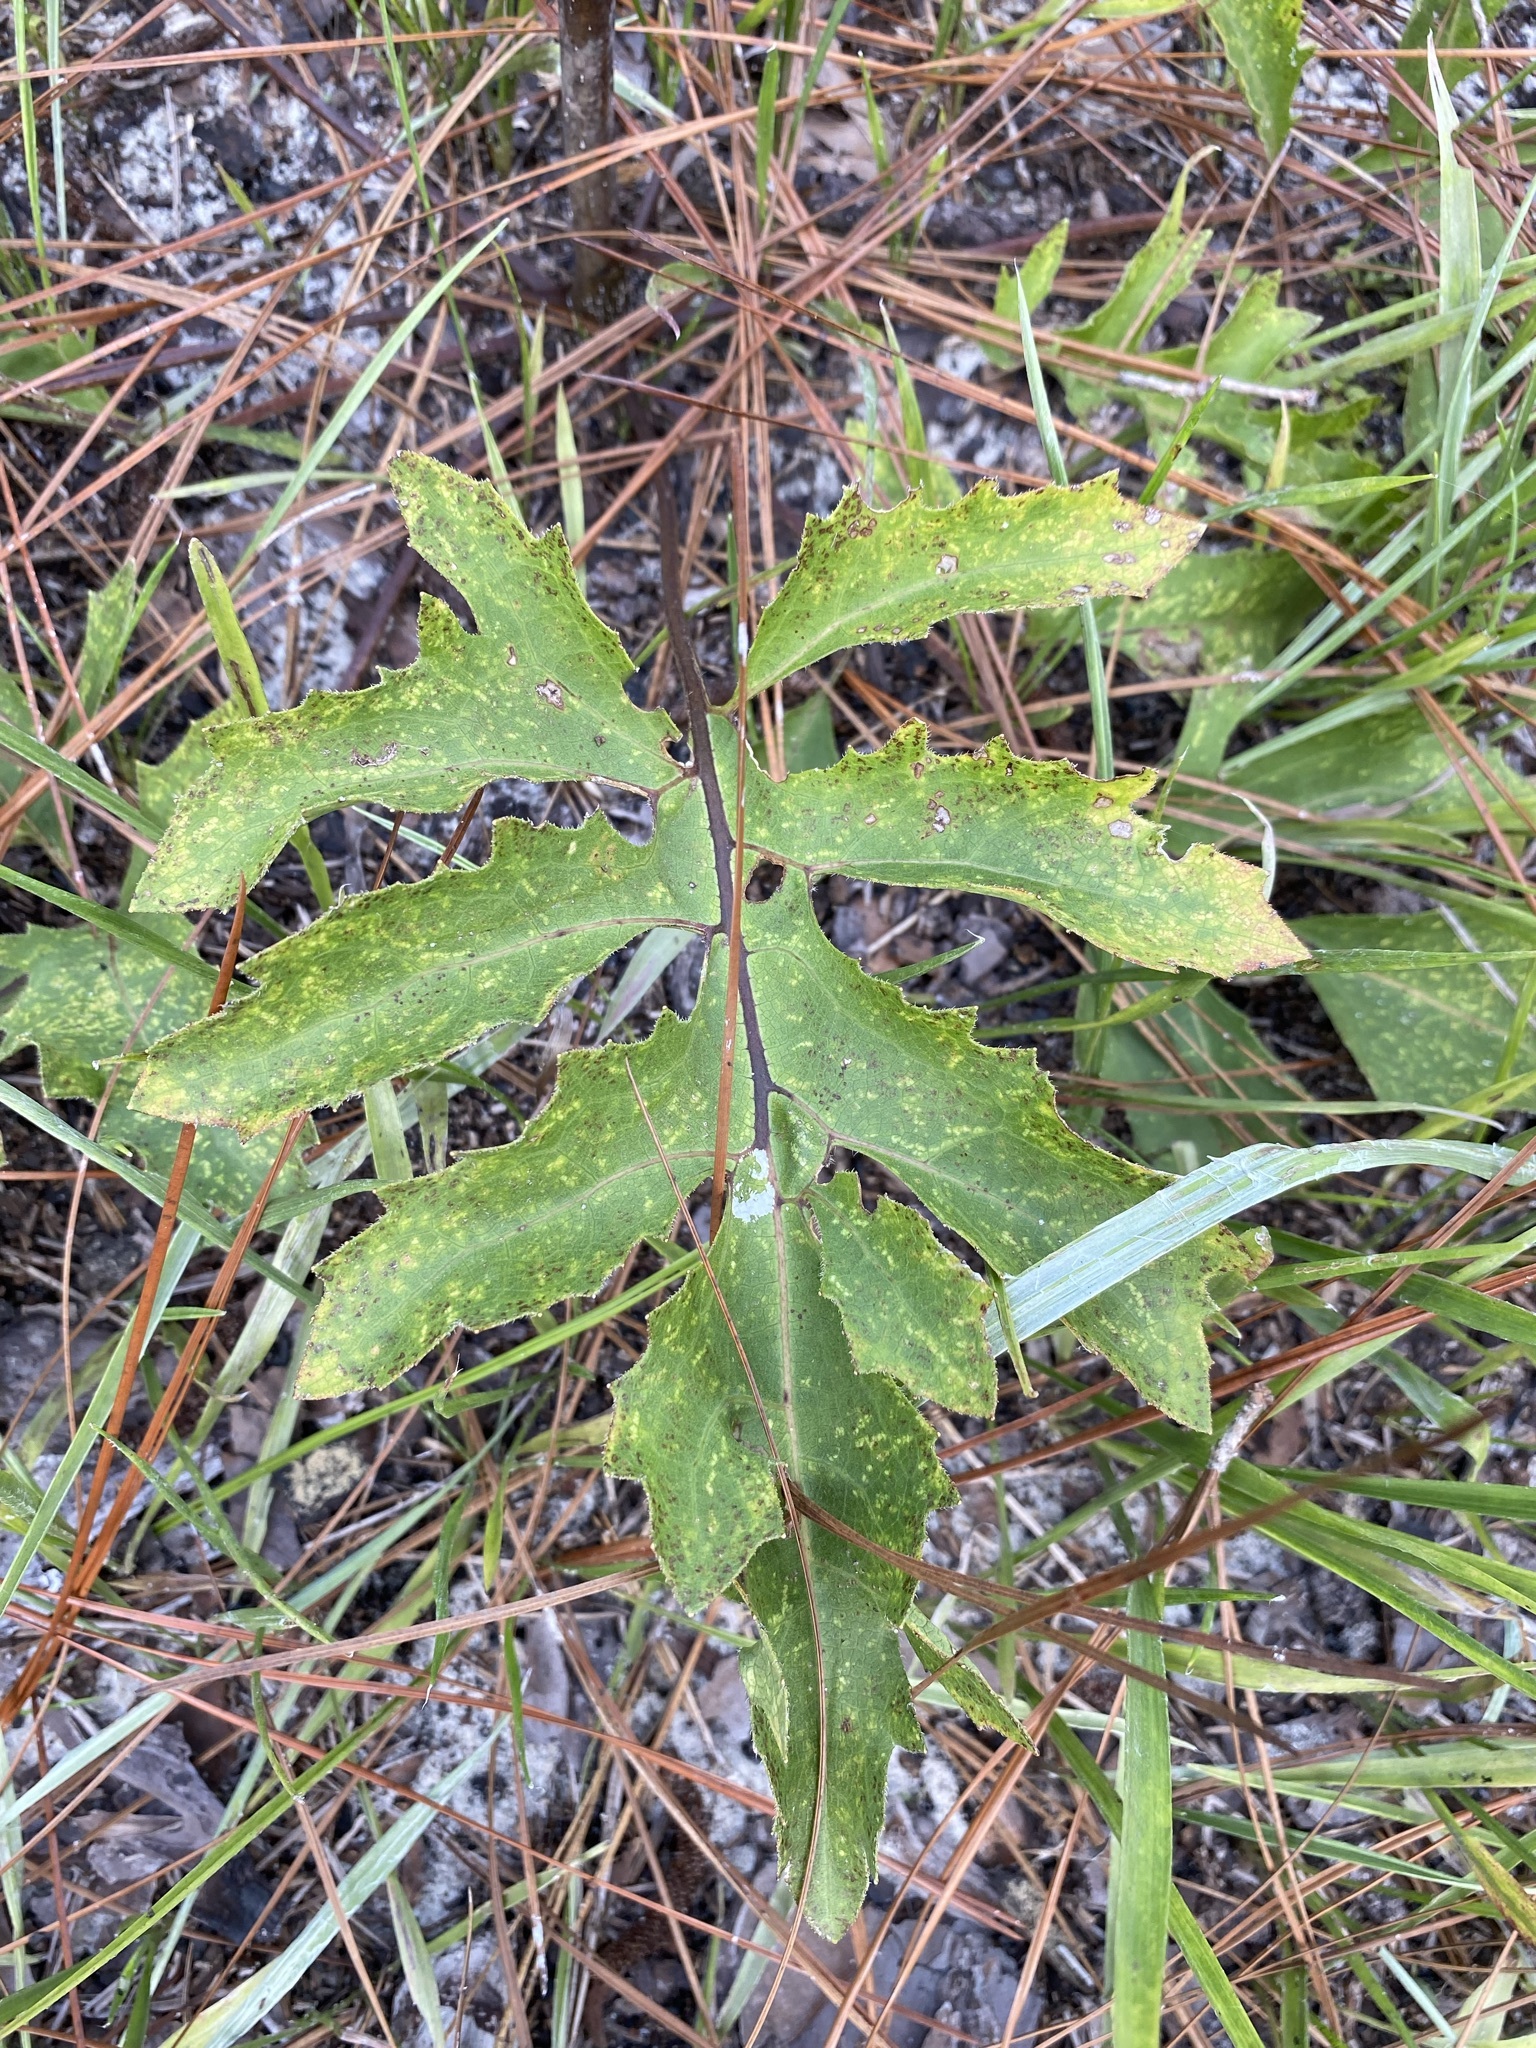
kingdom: Plantae
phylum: Tracheophyta
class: Magnoliopsida
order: Asterales
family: Asteraceae
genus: Silphium
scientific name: Silphium compositum
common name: Lesser basal-leaf rosinweed
